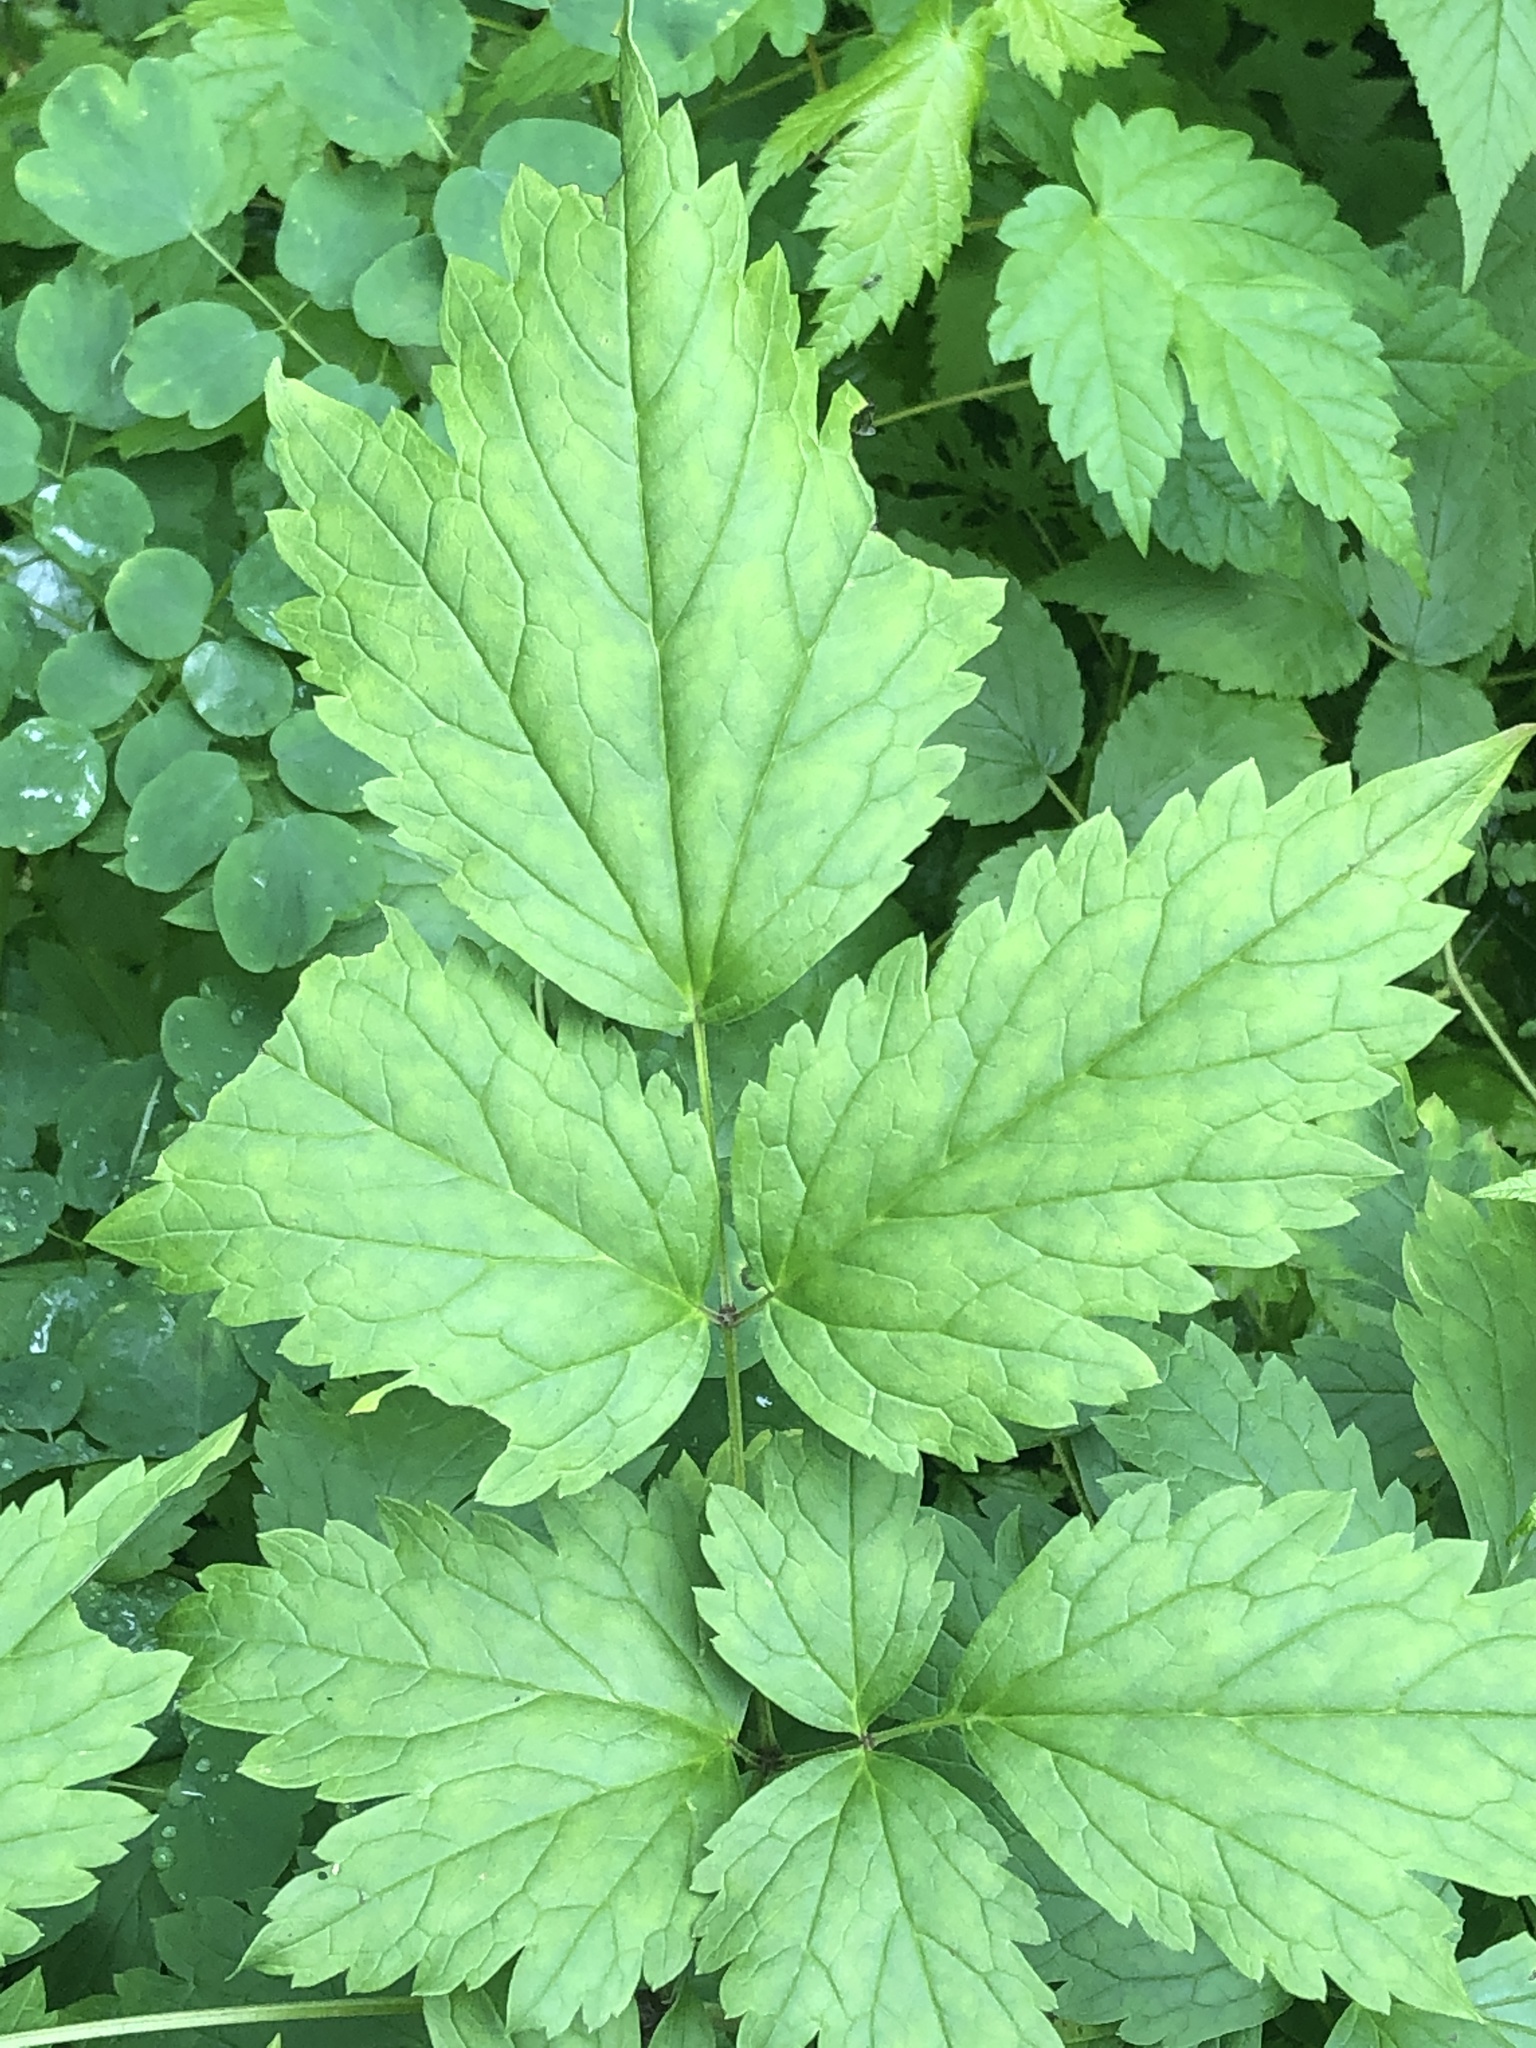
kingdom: Plantae
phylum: Tracheophyta
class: Magnoliopsida
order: Ranunculales
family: Ranunculaceae
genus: Actaea
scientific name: Actaea rubra
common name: Red baneberry
